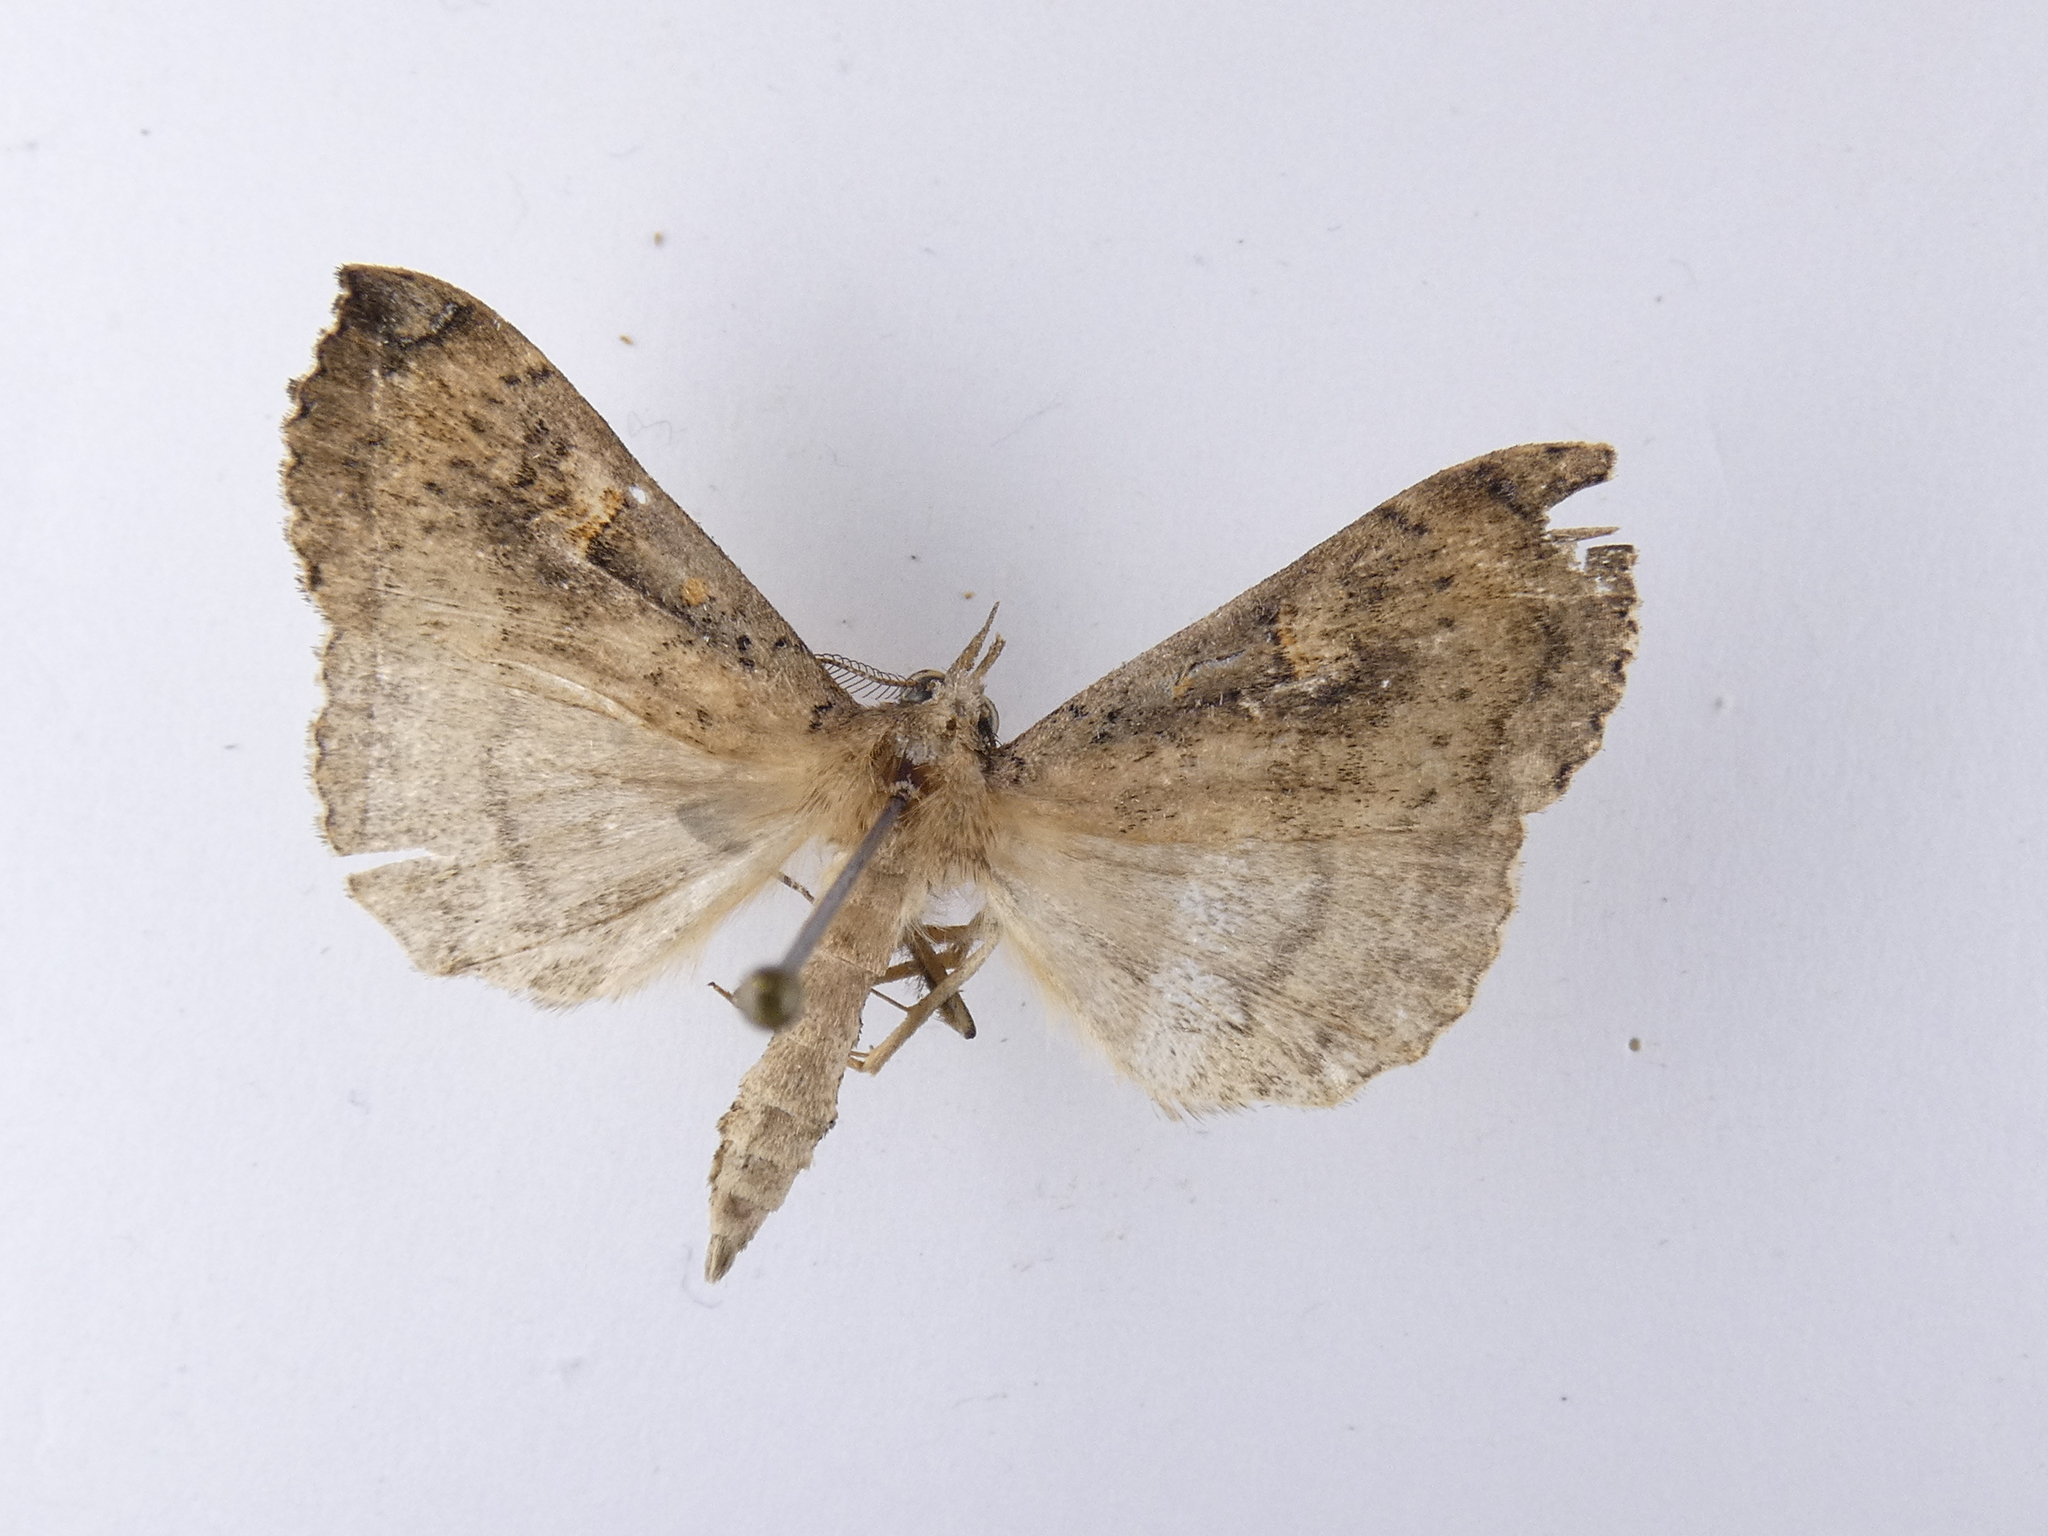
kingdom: Animalia
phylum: Arthropoda
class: Insecta
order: Lepidoptera
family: Erebidae
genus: Rhapsa
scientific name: Rhapsa scotosialis
